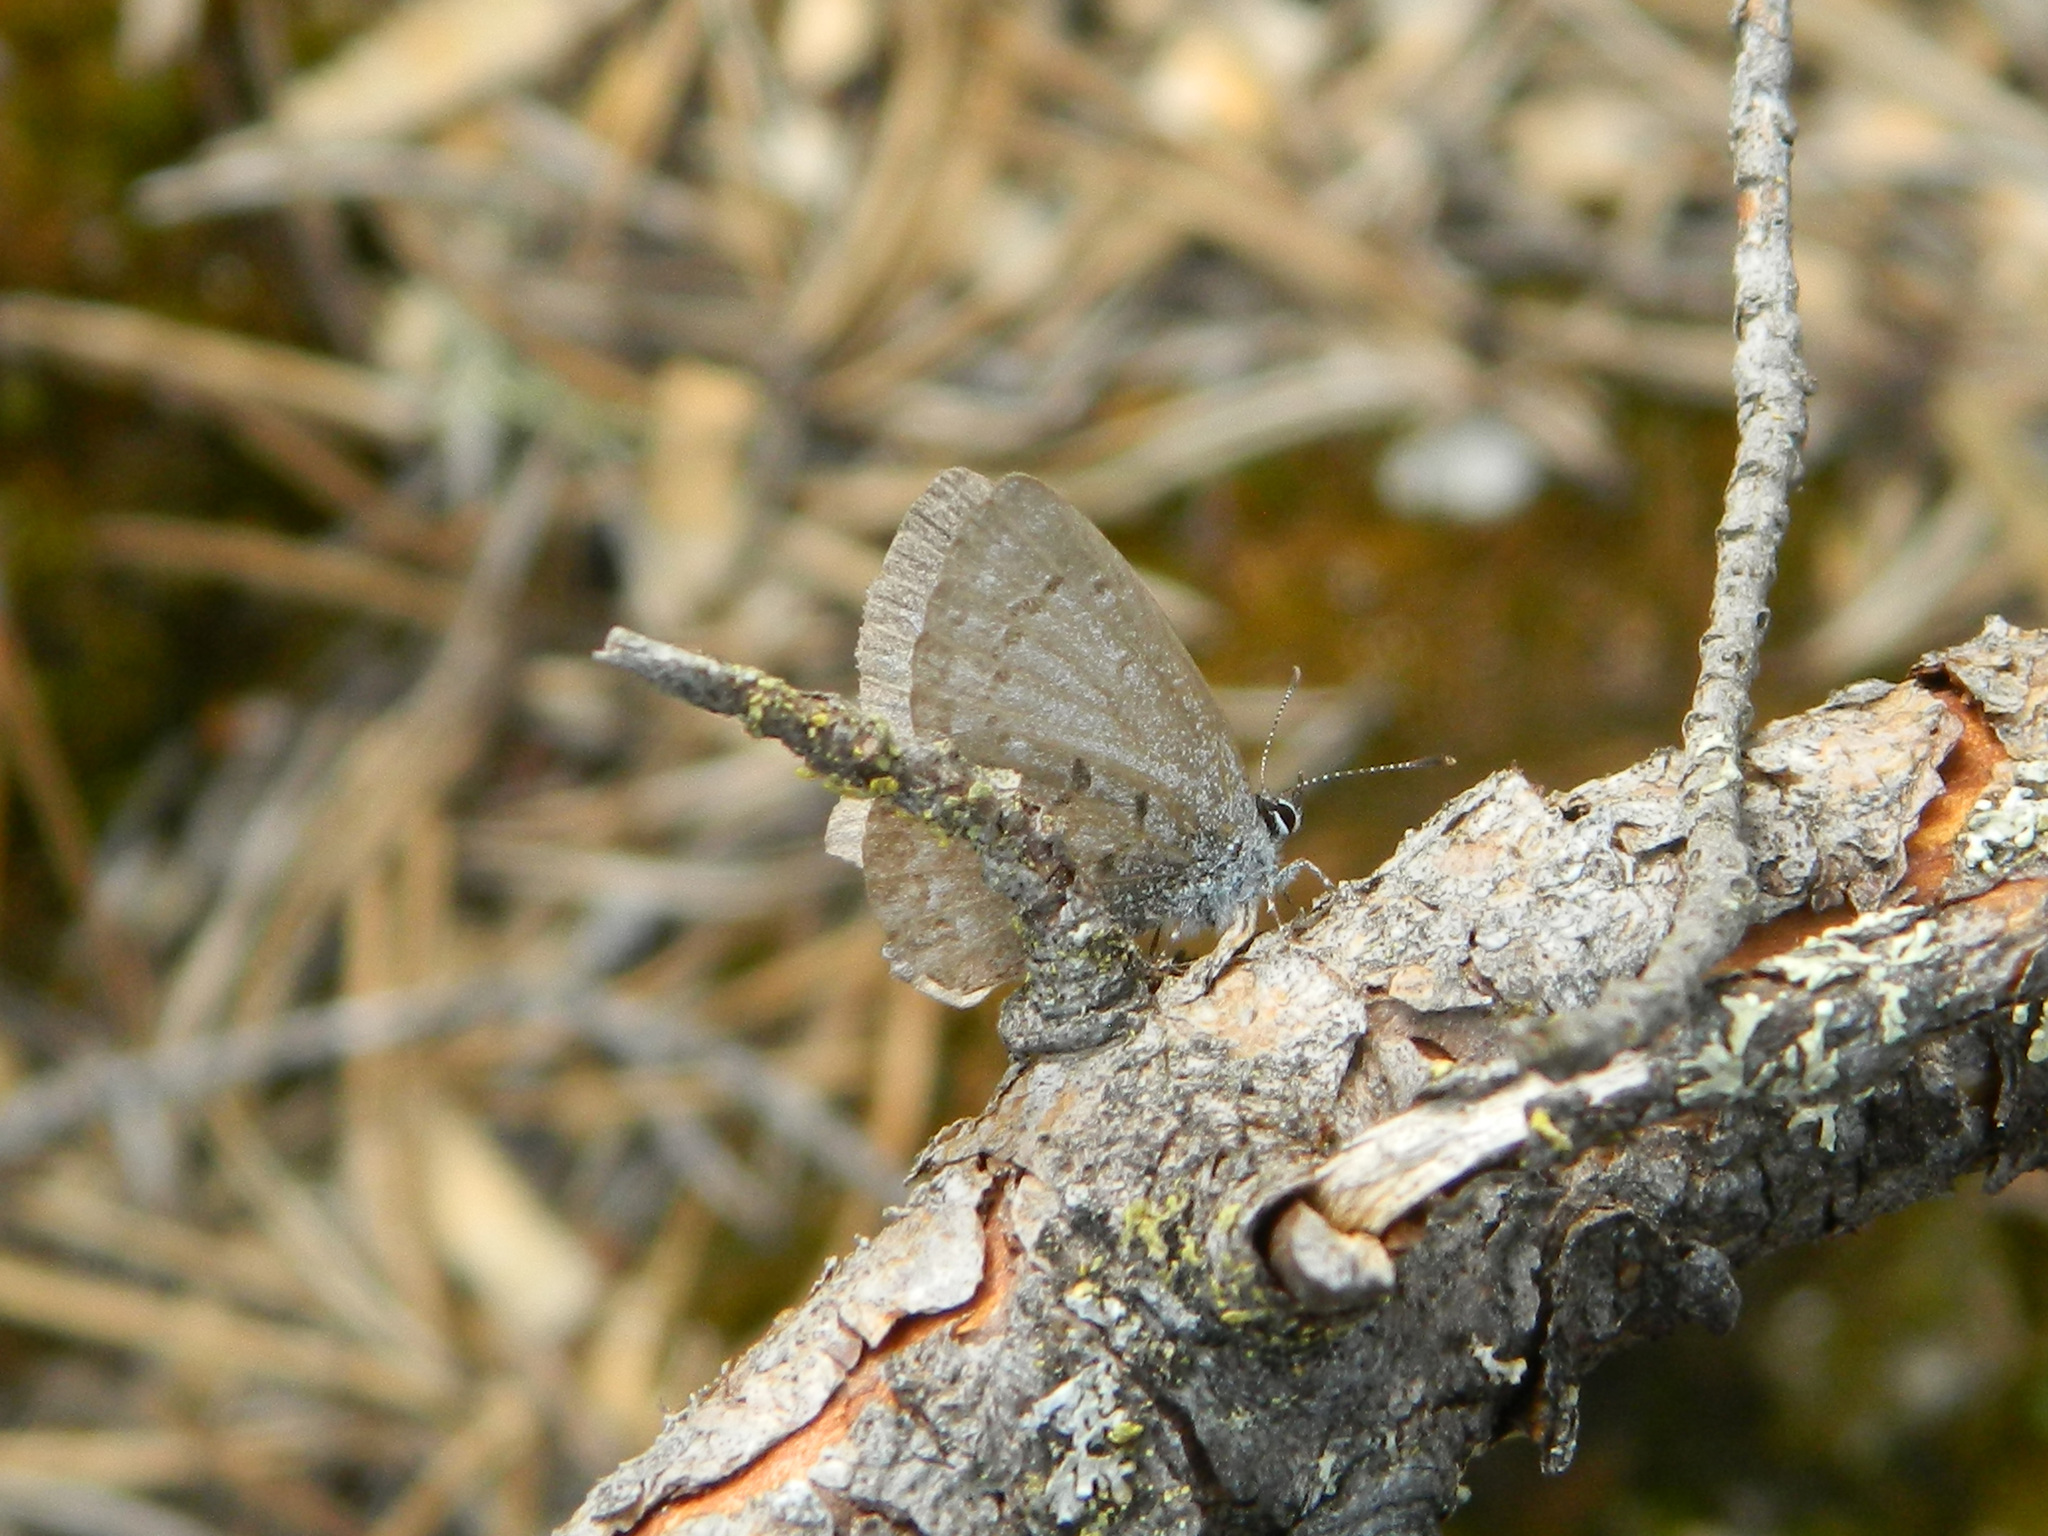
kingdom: Animalia
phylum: Arthropoda
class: Insecta
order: Lepidoptera
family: Lycaenidae
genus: Celastrina
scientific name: Celastrina lucia
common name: Lucia azure
